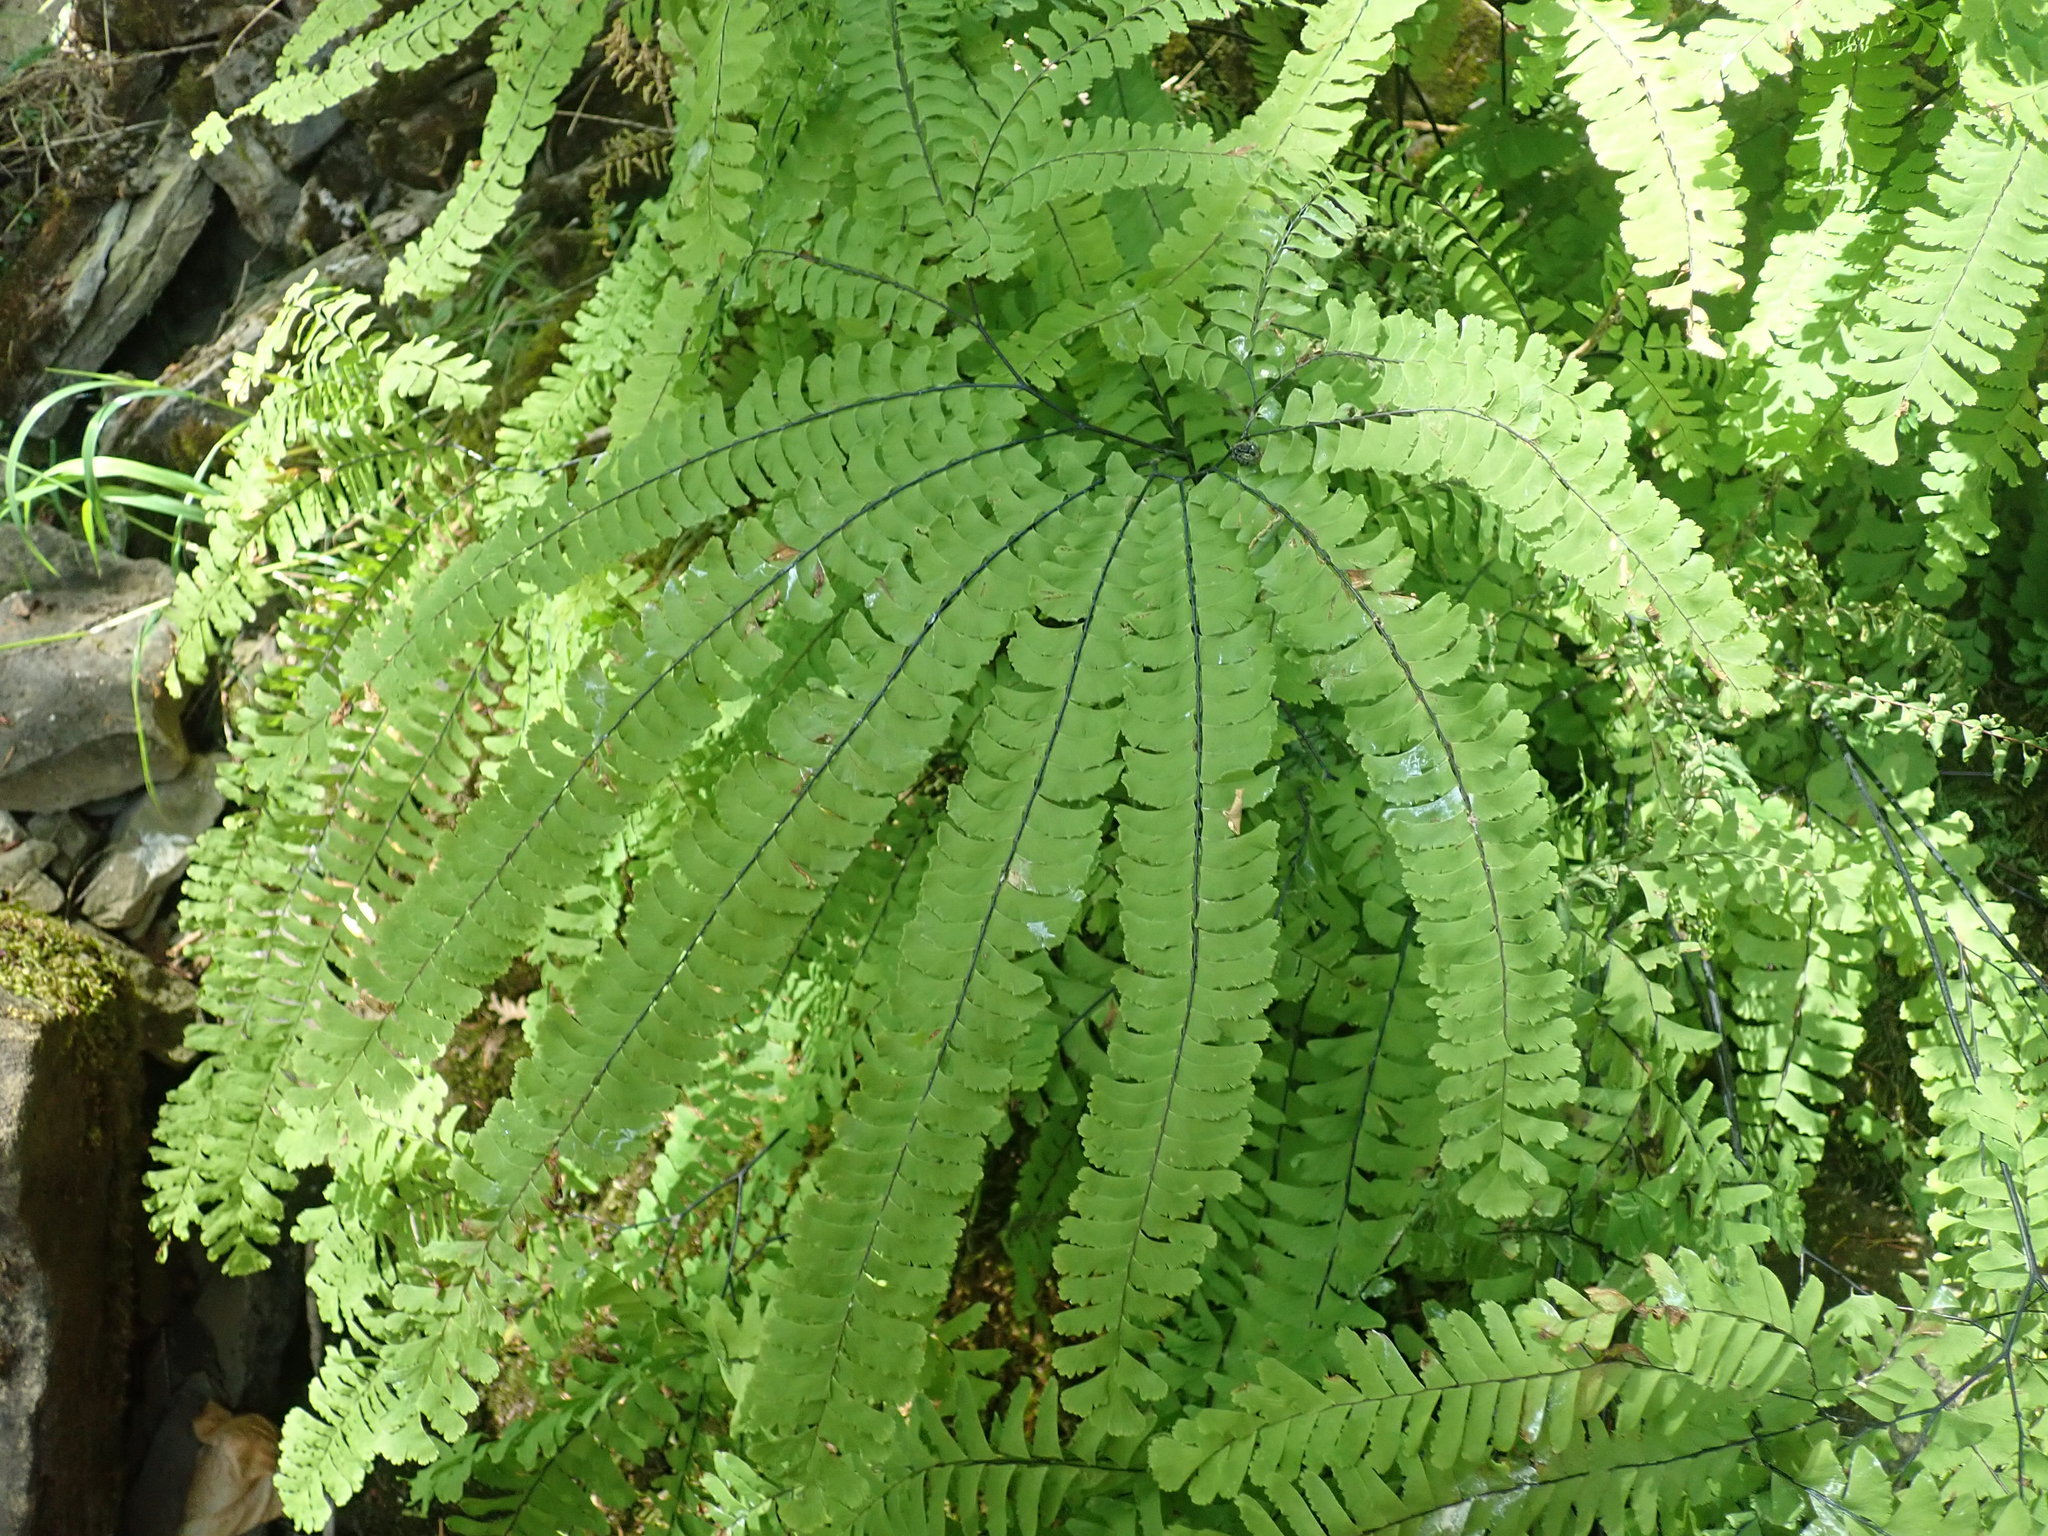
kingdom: Plantae
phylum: Tracheophyta
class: Polypodiopsida
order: Polypodiales
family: Pteridaceae
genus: Adiantum
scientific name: Adiantum aleuticum
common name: Aleutian maidenhair fern
